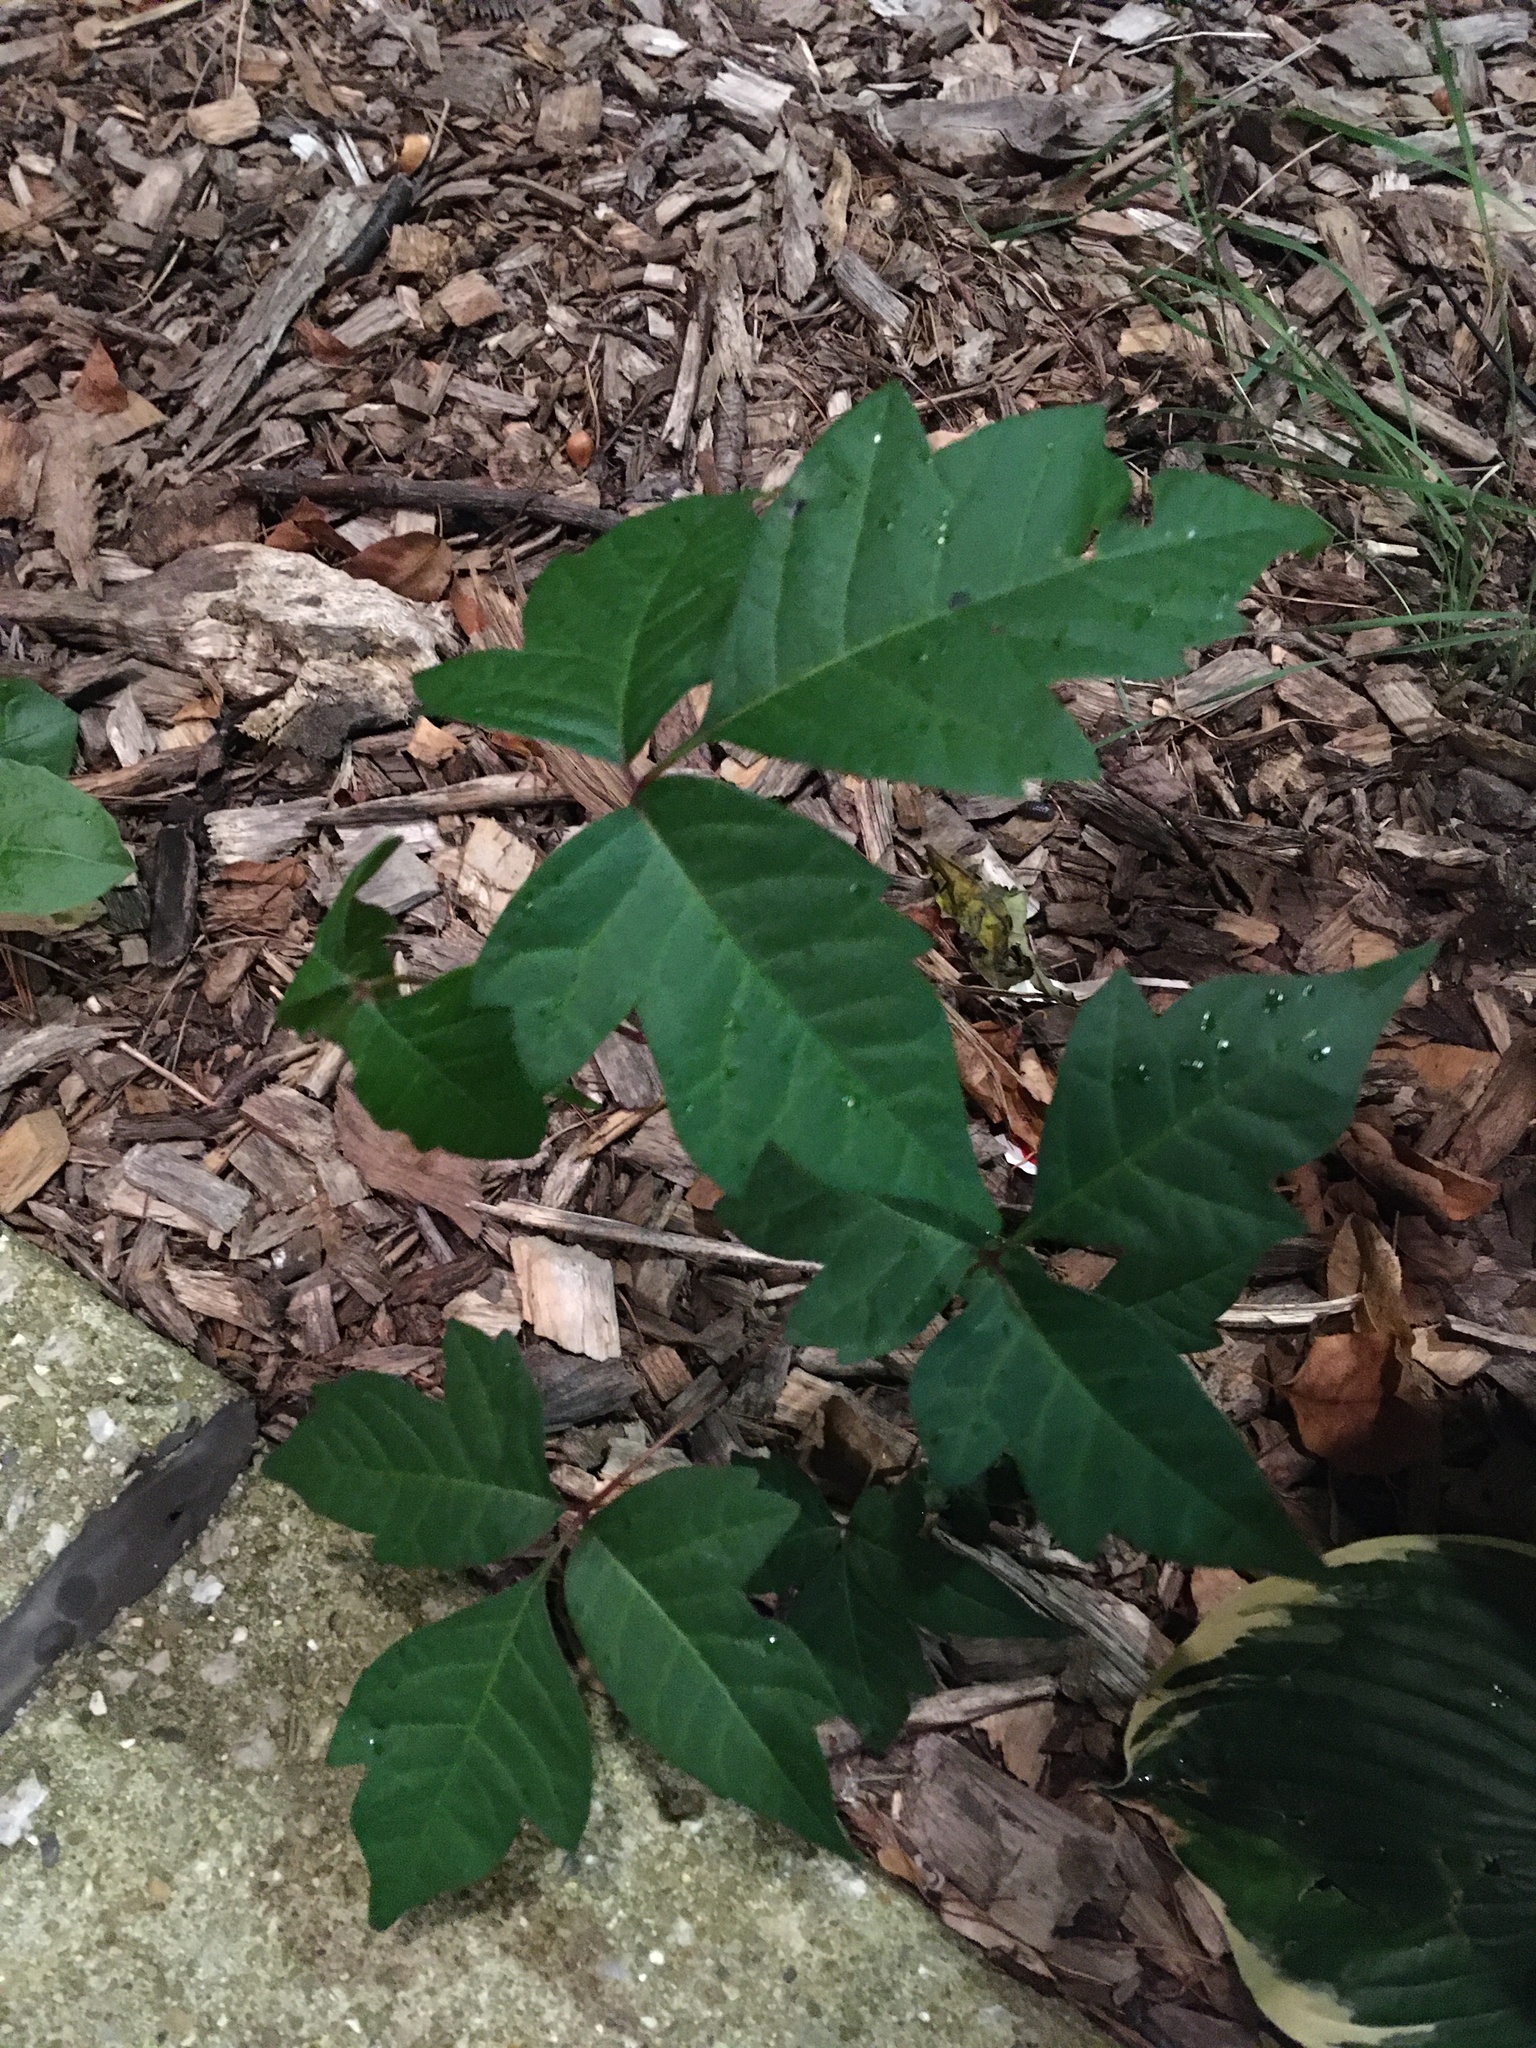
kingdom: Plantae
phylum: Tracheophyta
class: Magnoliopsida
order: Sapindales
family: Anacardiaceae
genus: Toxicodendron
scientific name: Toxicodendron radicans
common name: Poison ivy
